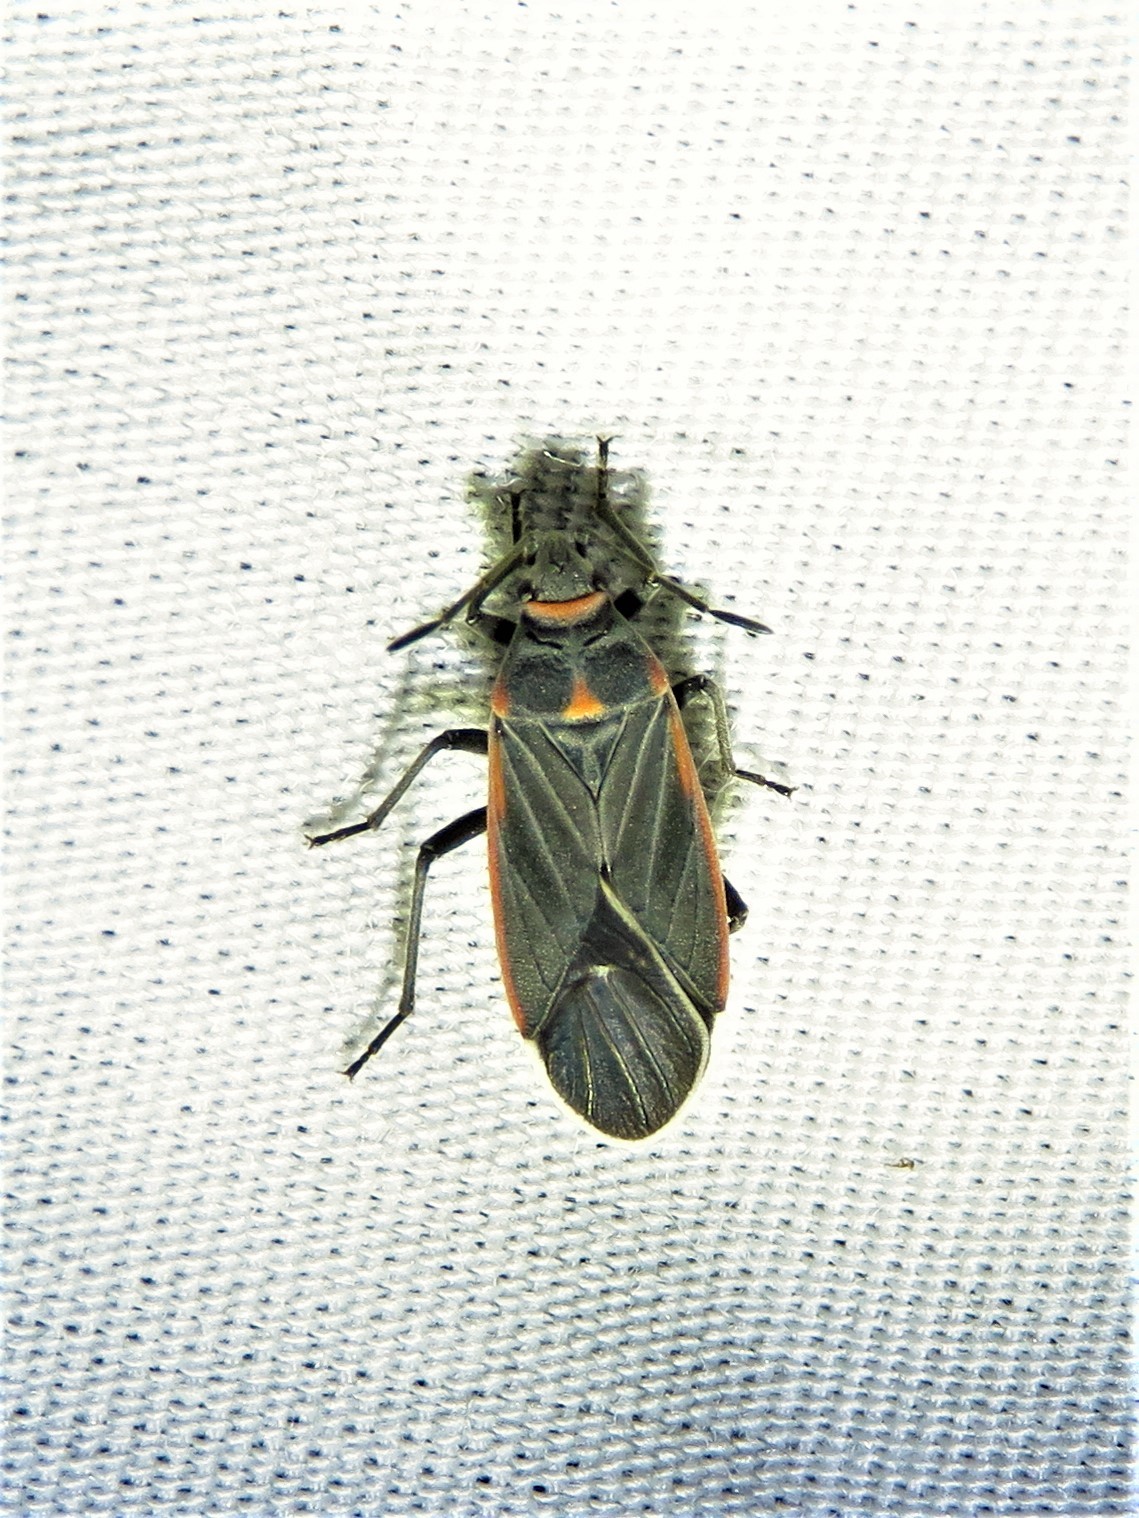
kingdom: Animalia
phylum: Arthropoda
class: Insecta
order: Hemiptera
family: Lygaeidae
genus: Melacoryphus
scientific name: Melacoryphus lateralis
